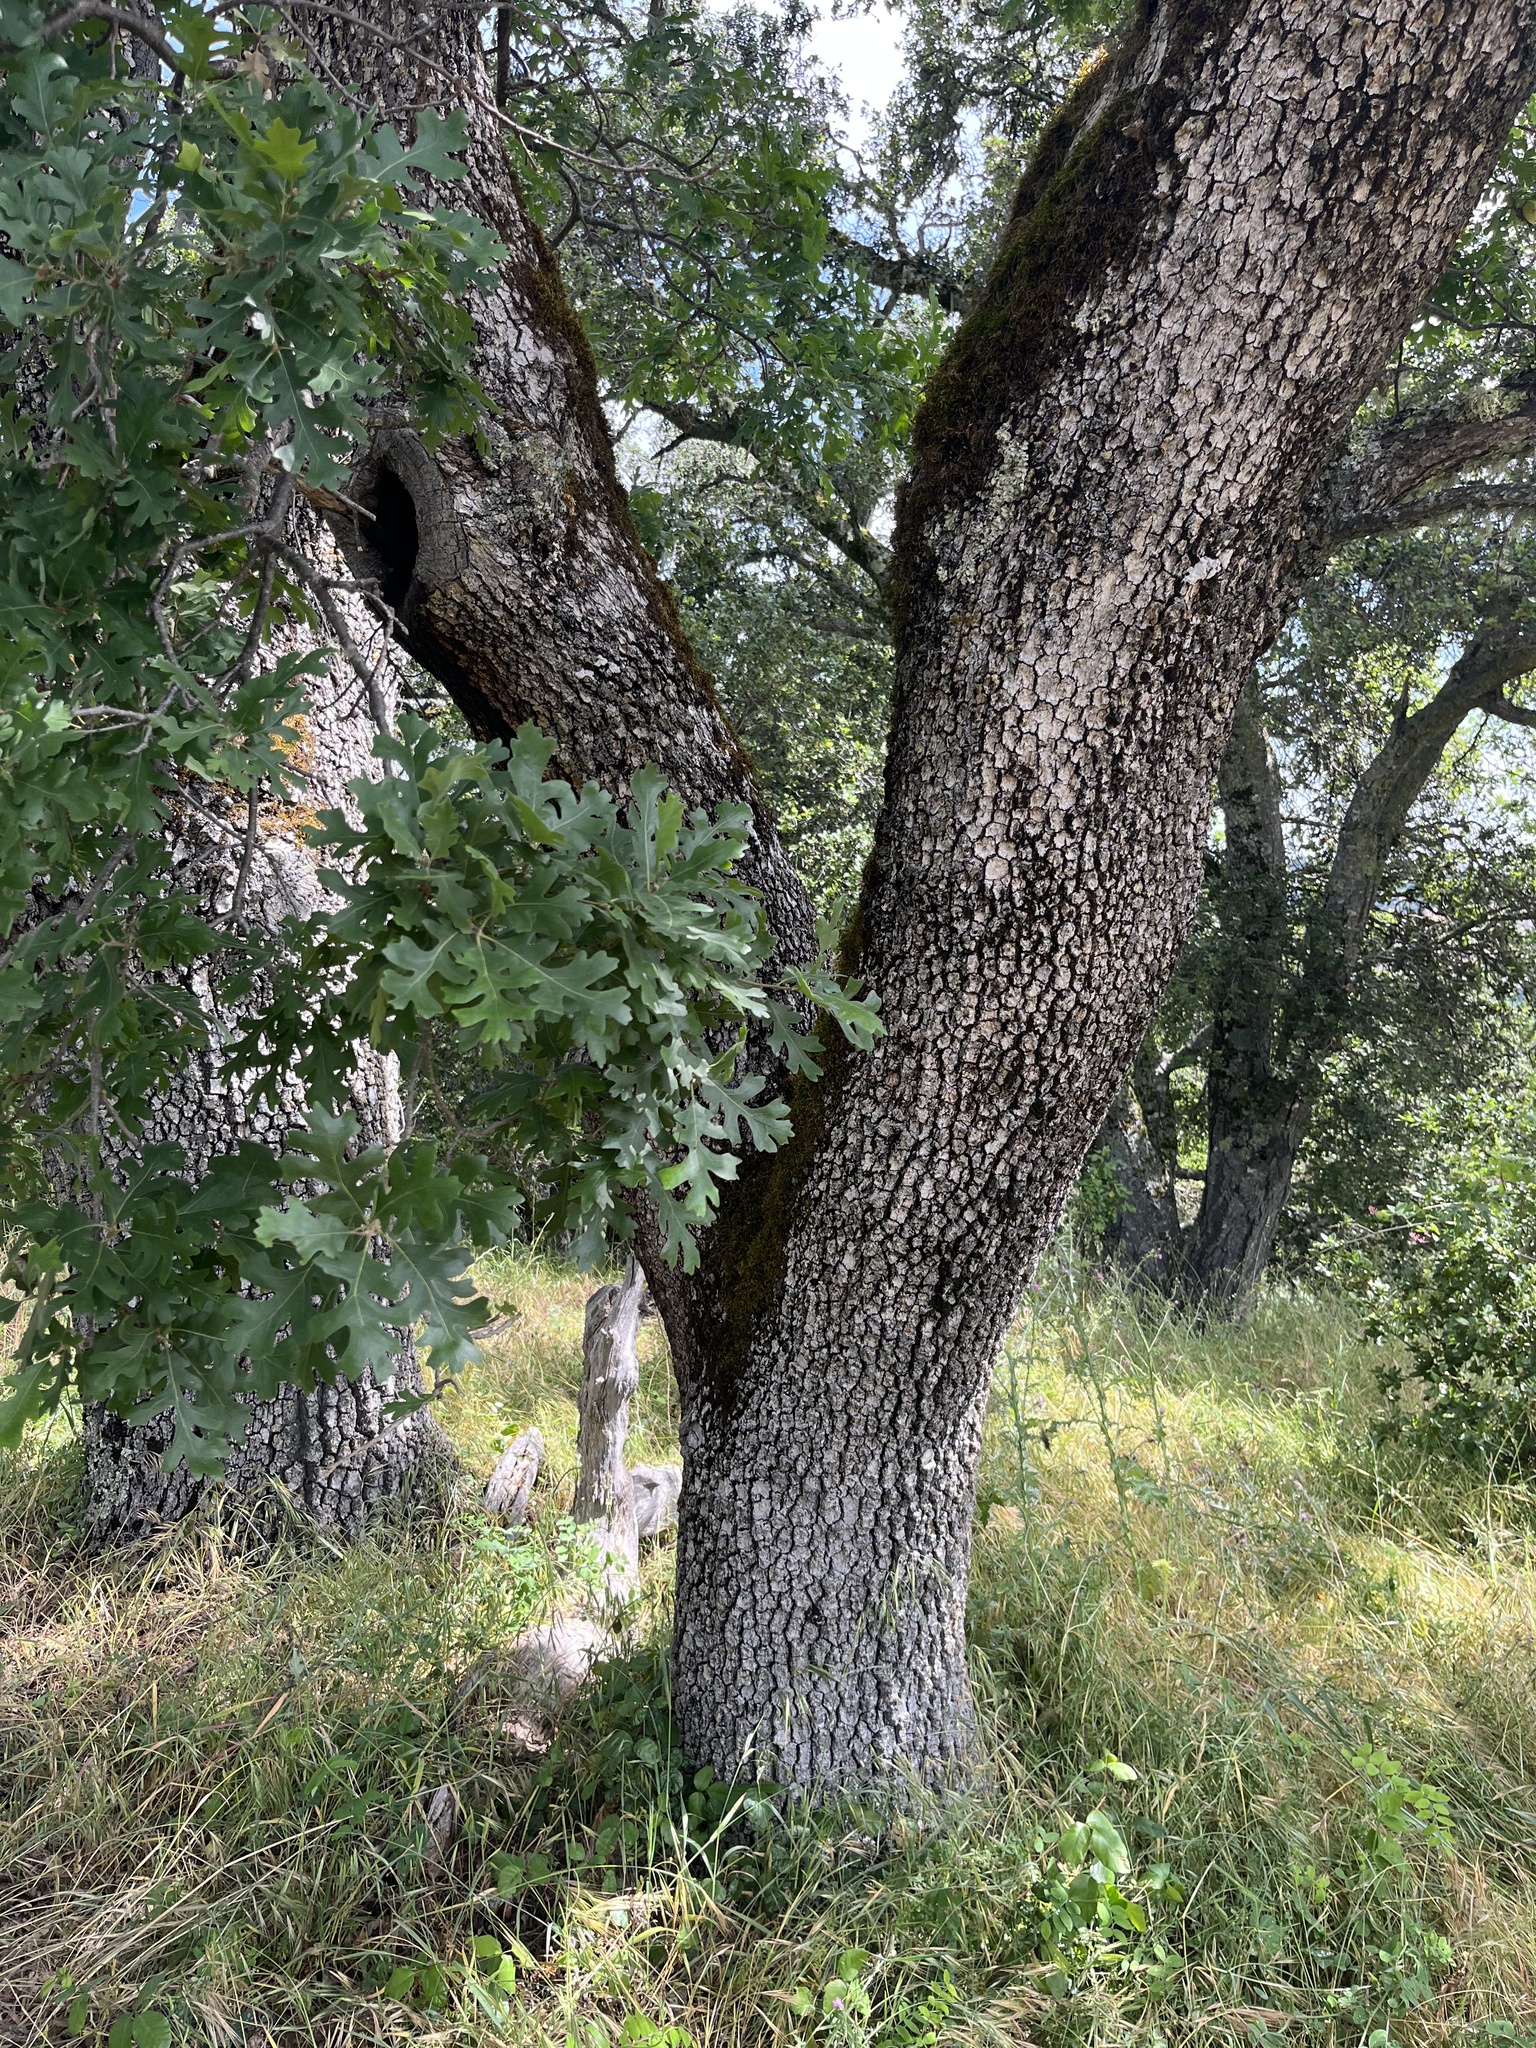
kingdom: Plantae
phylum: Tracheophyta
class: Magnoliopsida
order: Fagales
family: Fagaceae
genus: Quercus
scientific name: Quercus lobata
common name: Valley oak
